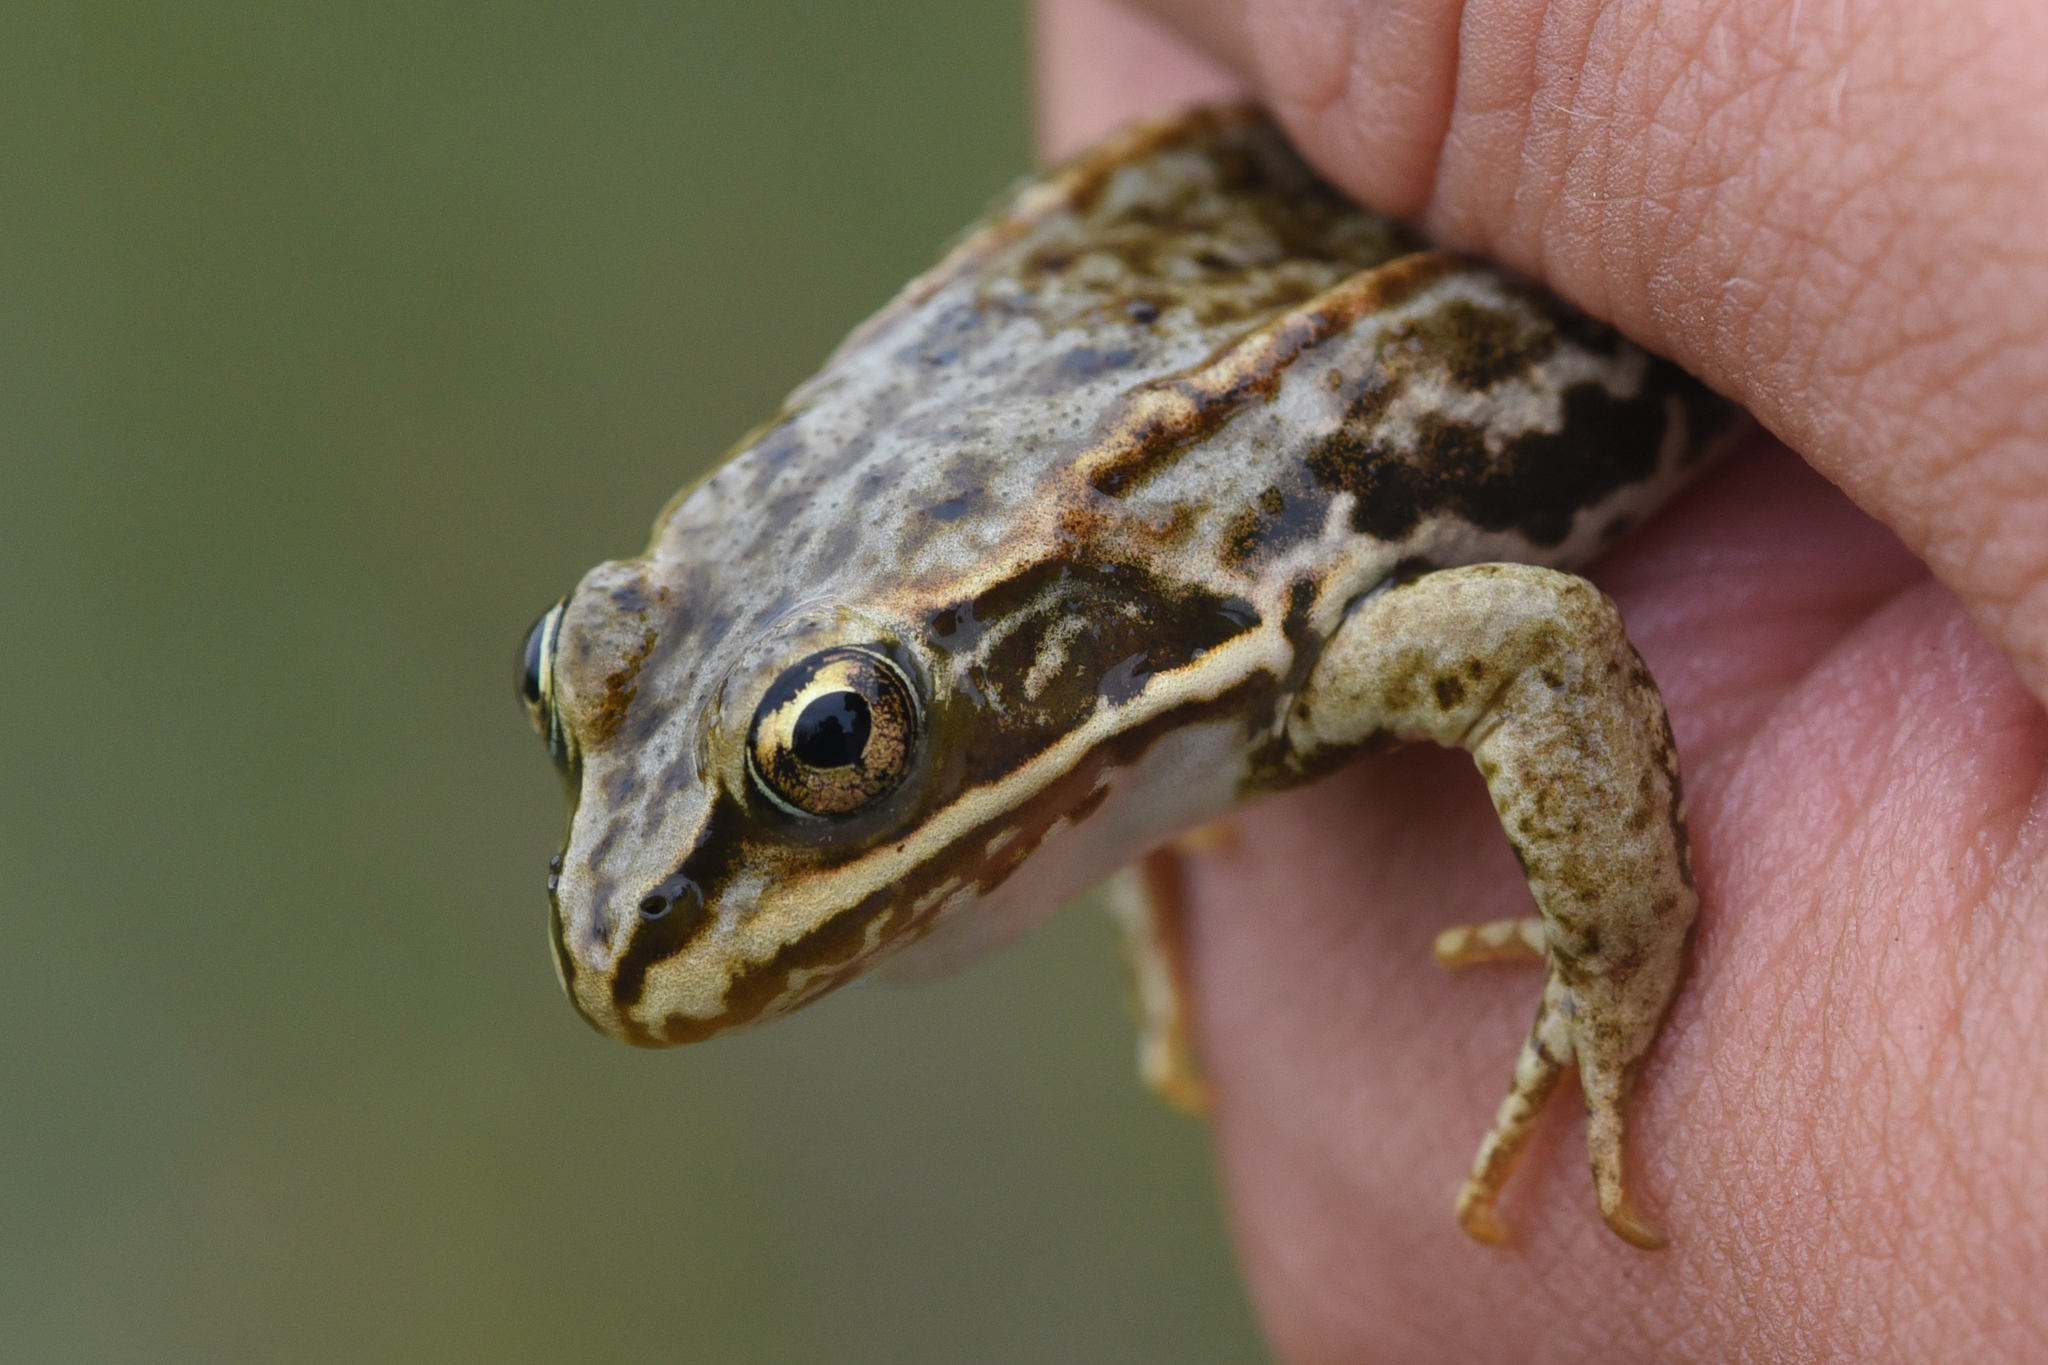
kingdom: Animalia
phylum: Chordata
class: Amphibia
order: Anura
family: Ranidae
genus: Rana
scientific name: Rana luteiventris
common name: Columbia spotted frog
